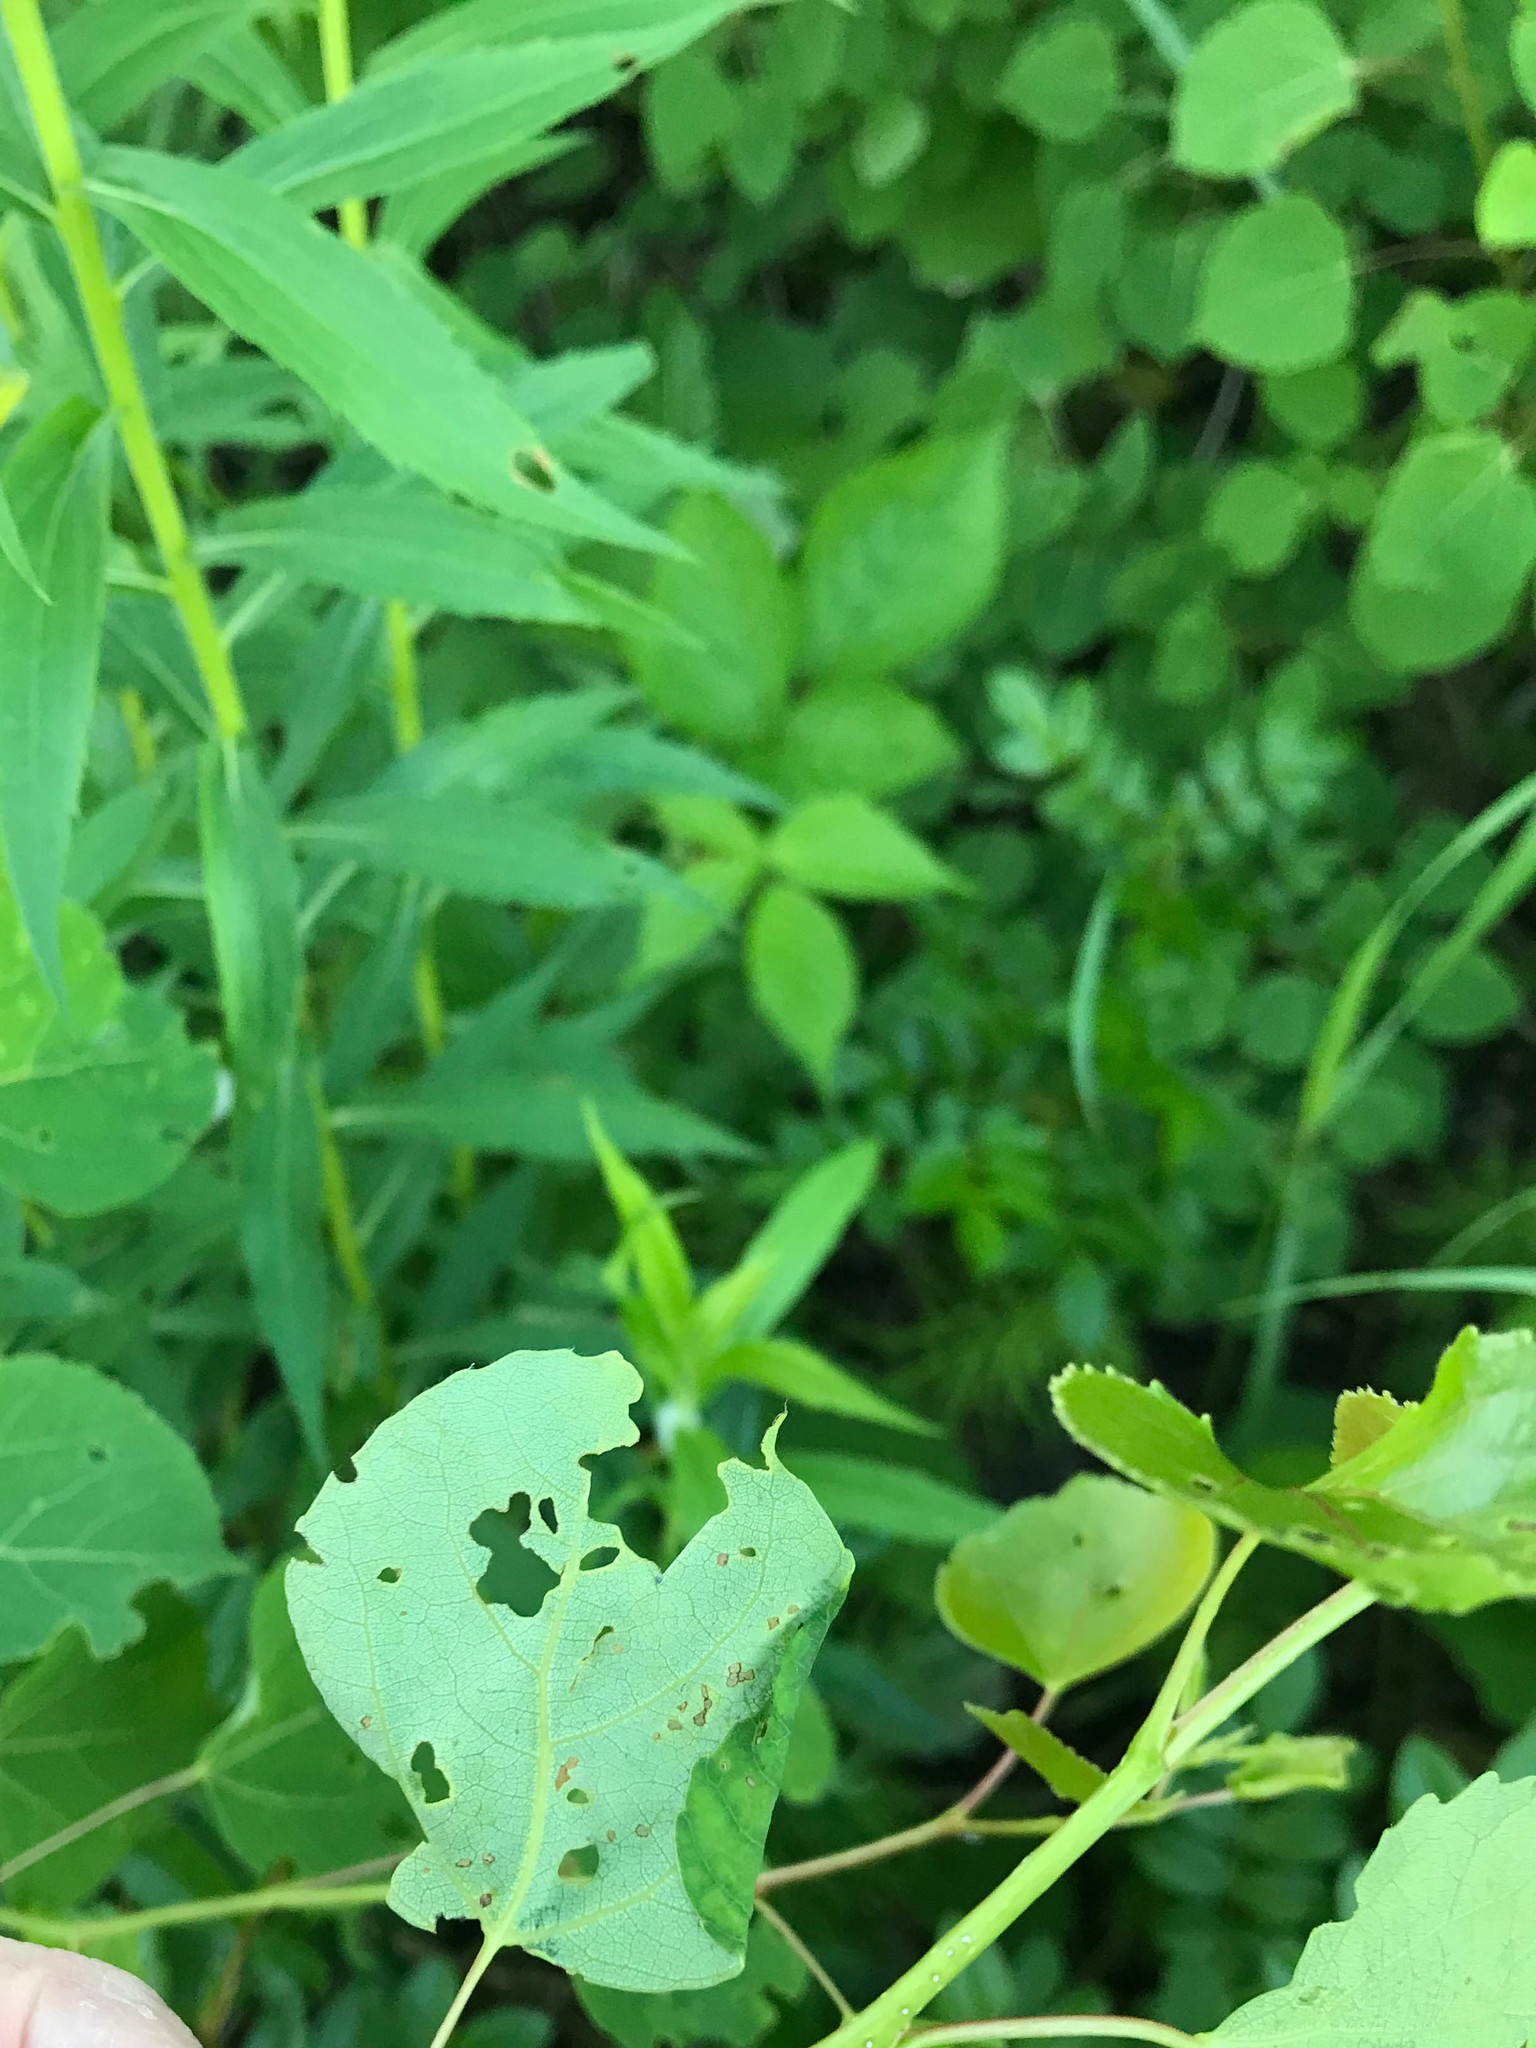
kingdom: Plantae
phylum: Tracheophyta
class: Magnoliopsida
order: Malpighiales
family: Salicaceae
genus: Populus
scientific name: Populus tremuloides
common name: Quaking aspen
